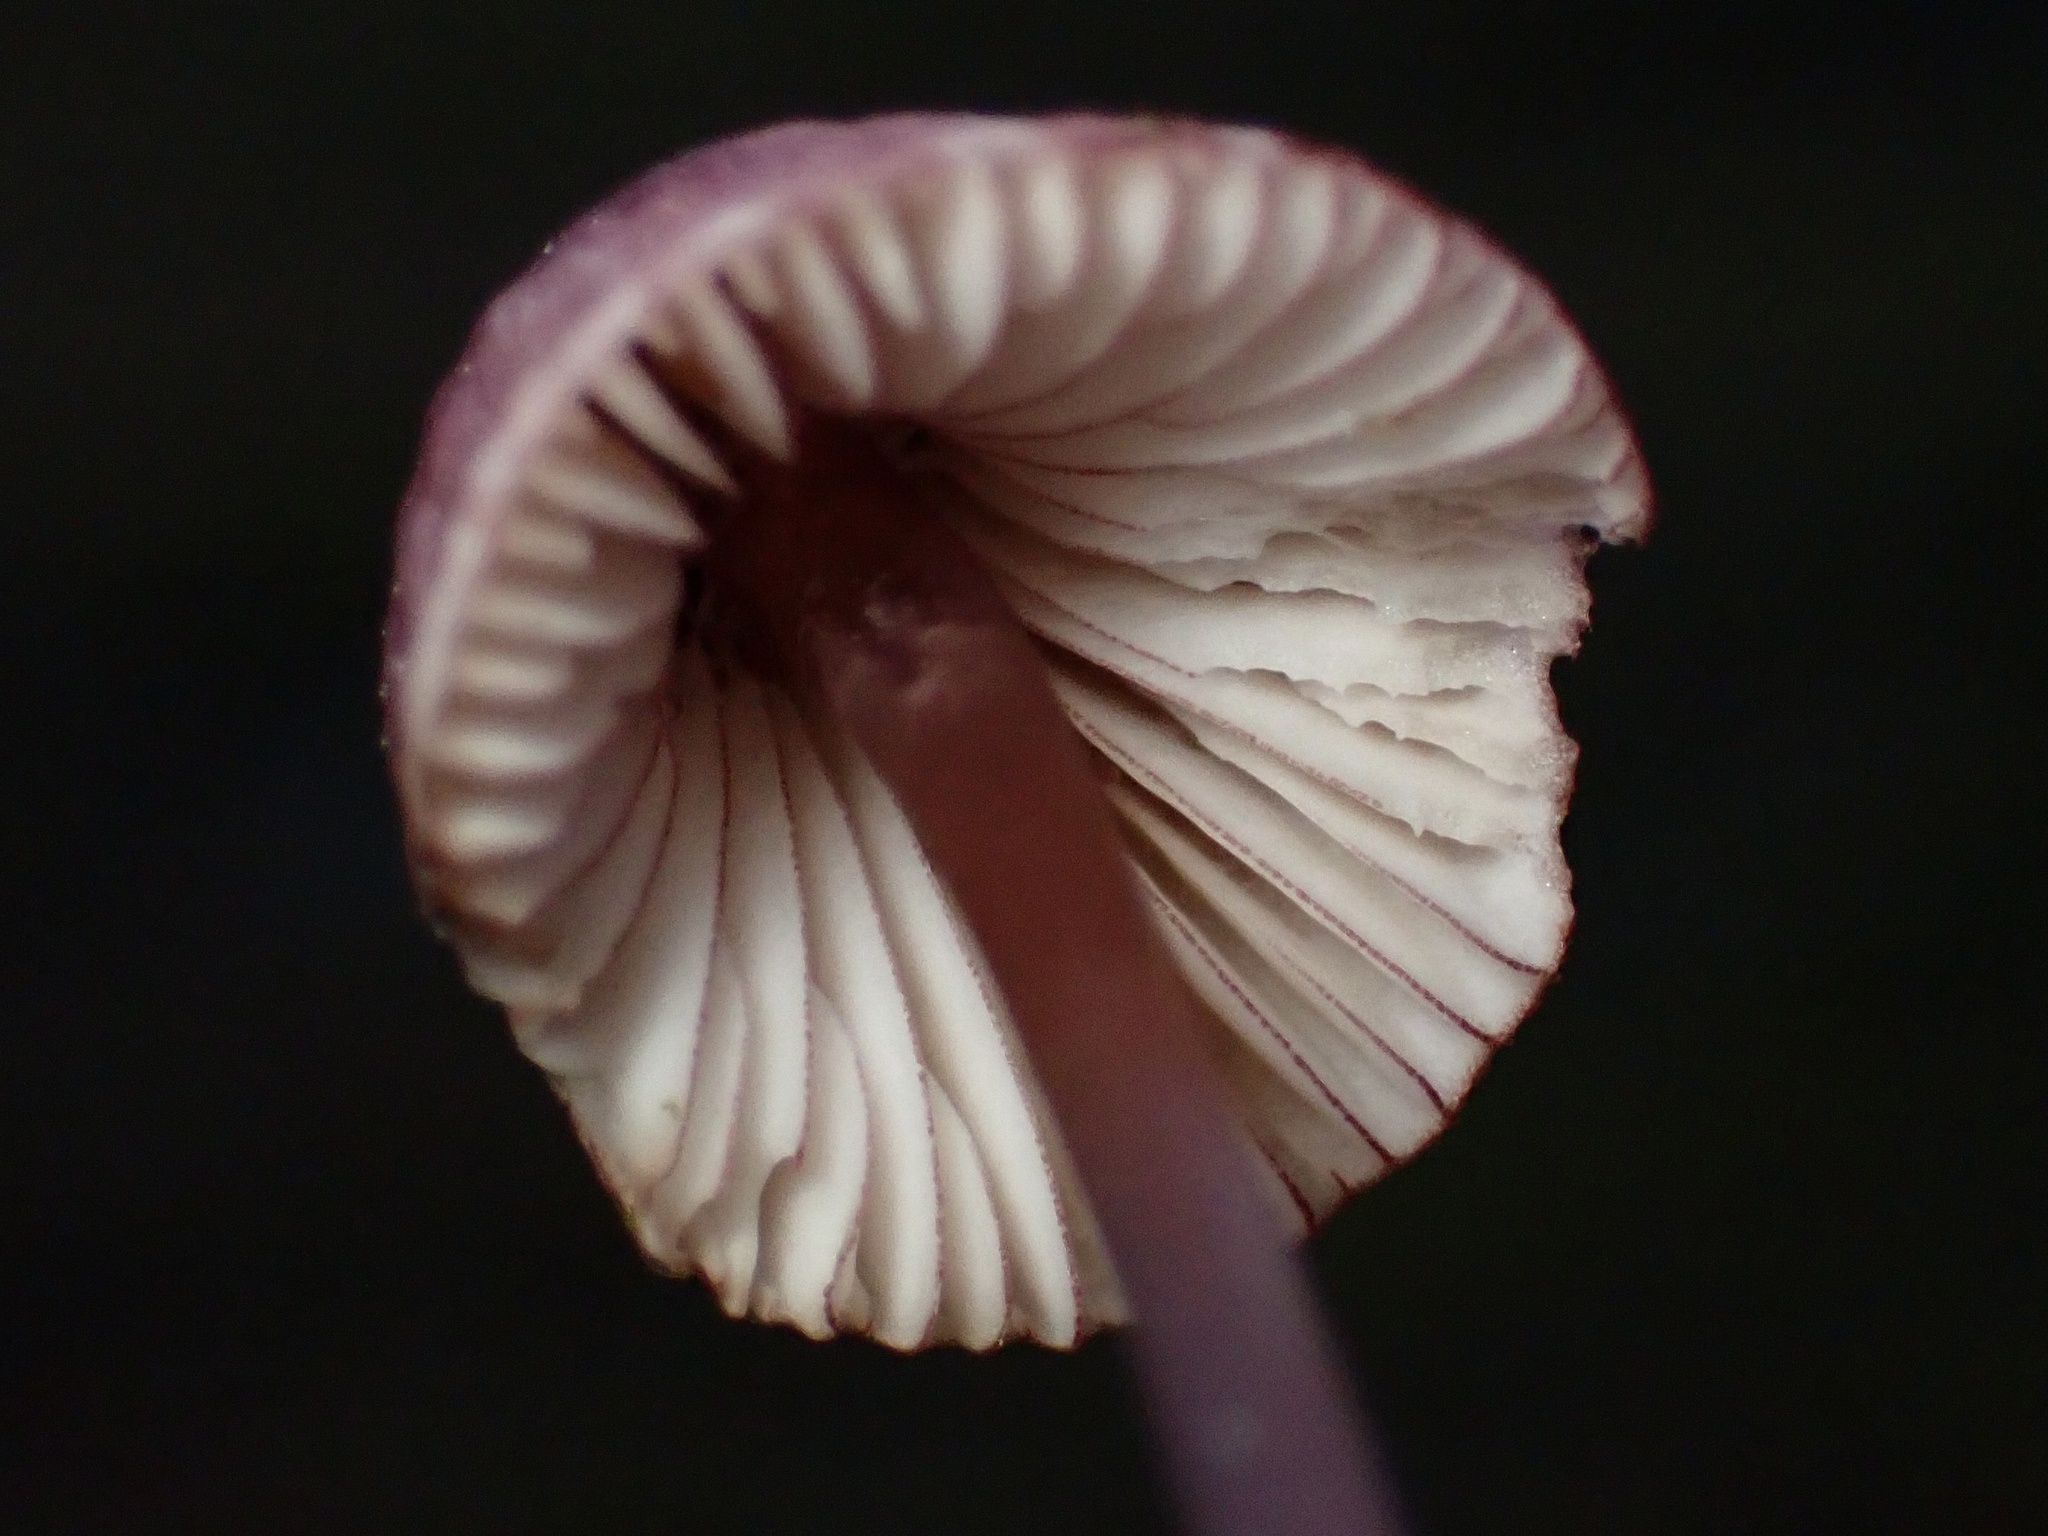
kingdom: Fungi
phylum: Basidiomycota
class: Agaricomycetes
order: Agaricales
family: Mycenaceae
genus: Mycena
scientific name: Mycena purpureofusca
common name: Purple edge bonnet
